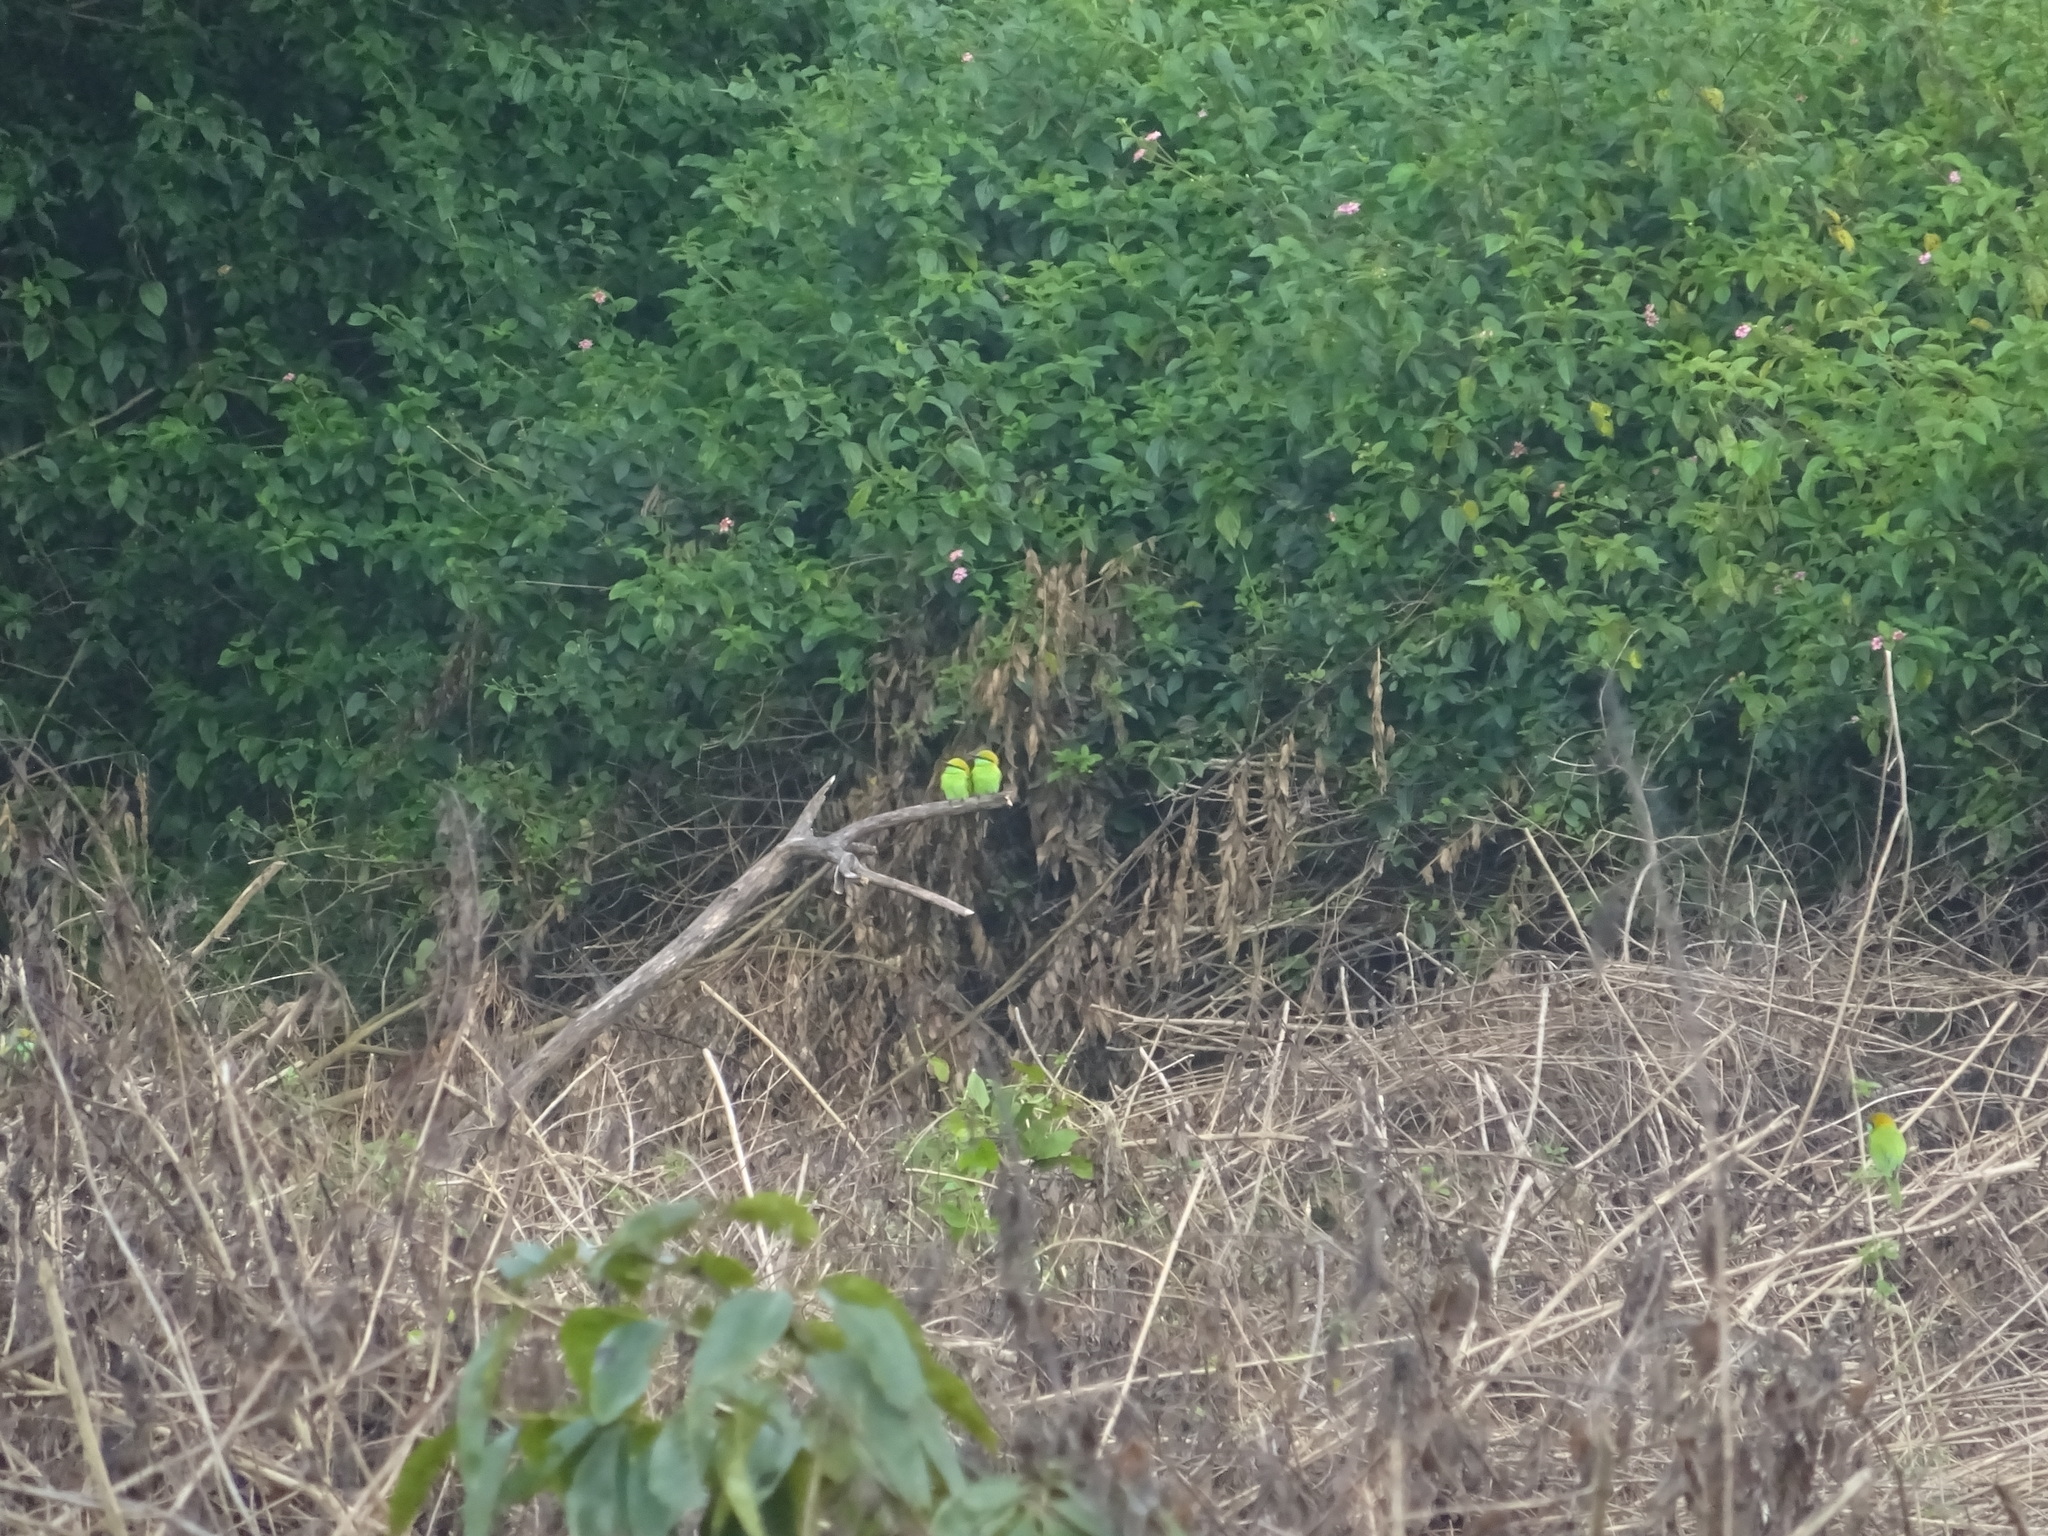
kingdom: Animalia
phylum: Chordata
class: Aves
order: Coraciiformes
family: Meropidae
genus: Merops
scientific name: Merops orientalis
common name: Green bee-eater
